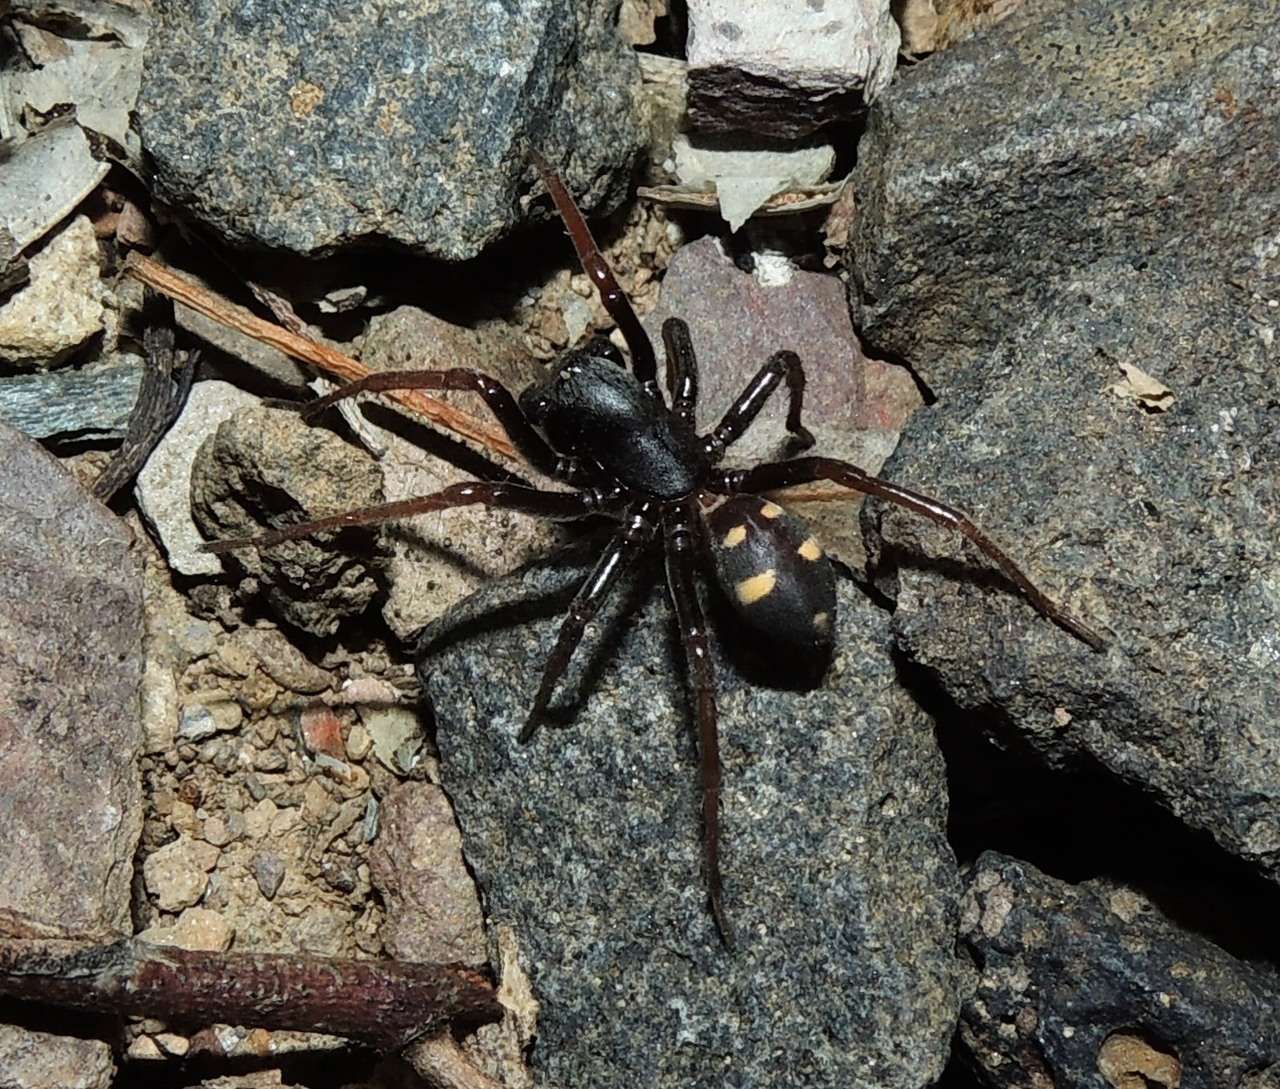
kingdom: Animalia
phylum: Arthropoda
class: Arachnida
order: Araneae
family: Zodariidae
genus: Storena
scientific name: Storena
